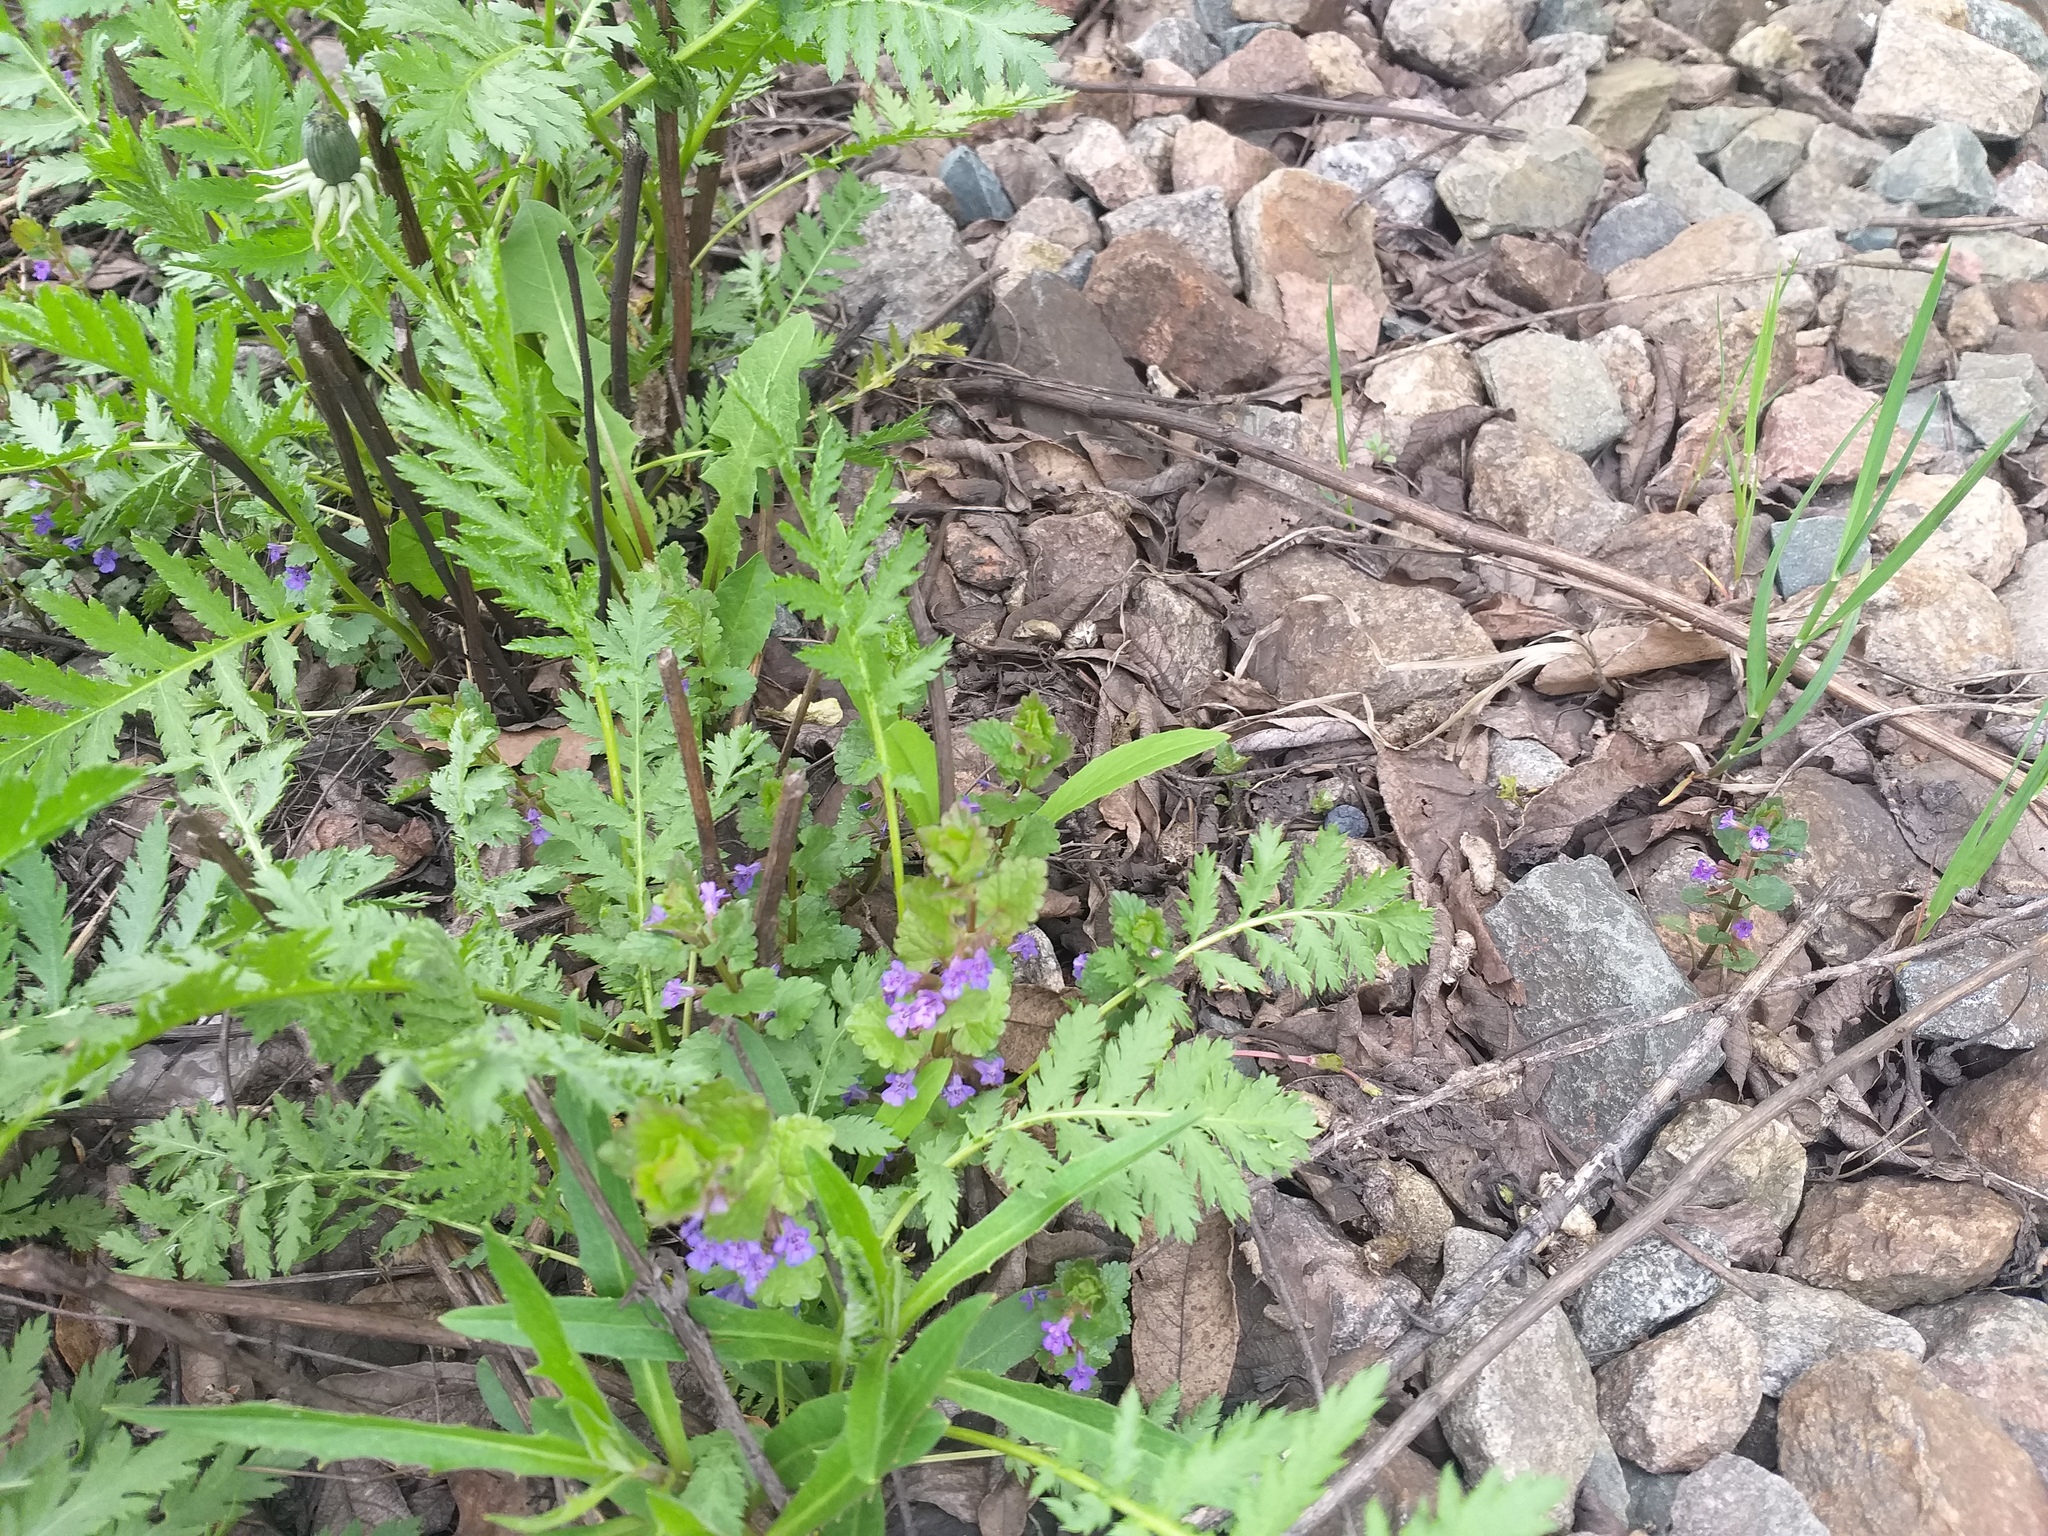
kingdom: Plantae
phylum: Tracheophyta
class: Magnoliopsida
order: Lamiales
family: Lamiaceae
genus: Glechoma
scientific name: Glechoma hederacea
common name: Ground ivy
